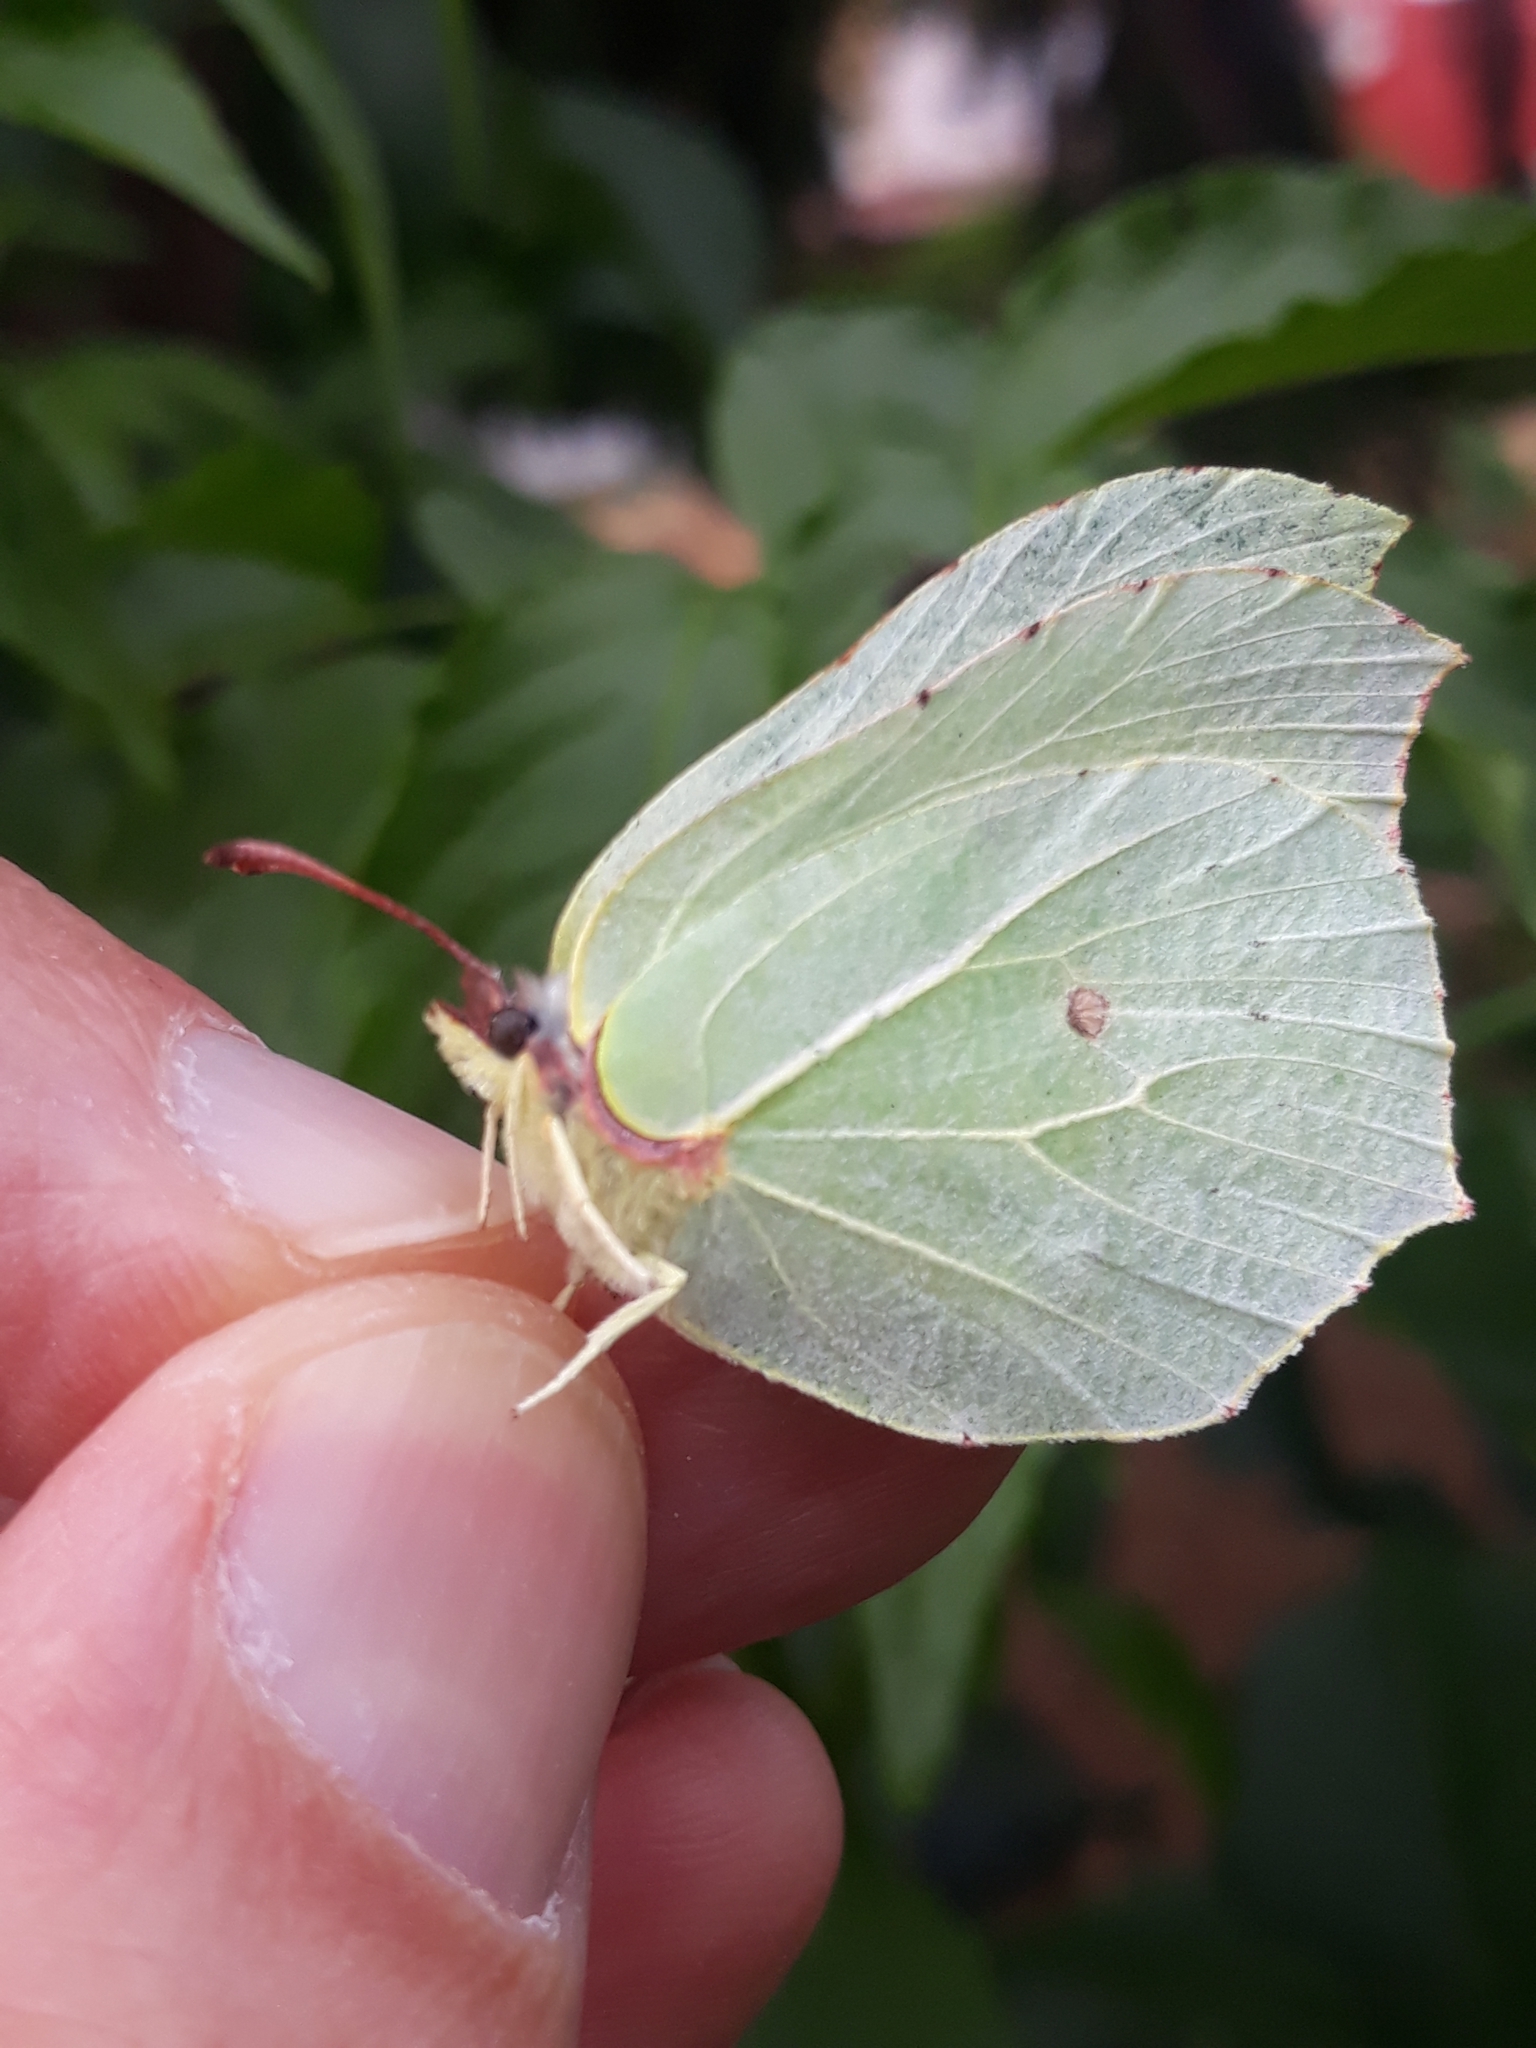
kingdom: Animalia
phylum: Arthropoda
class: Insecta
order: Lepidoptera
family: Pieridae
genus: Gonepteryx
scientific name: Gonepteryx rhamni
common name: Brimstone
